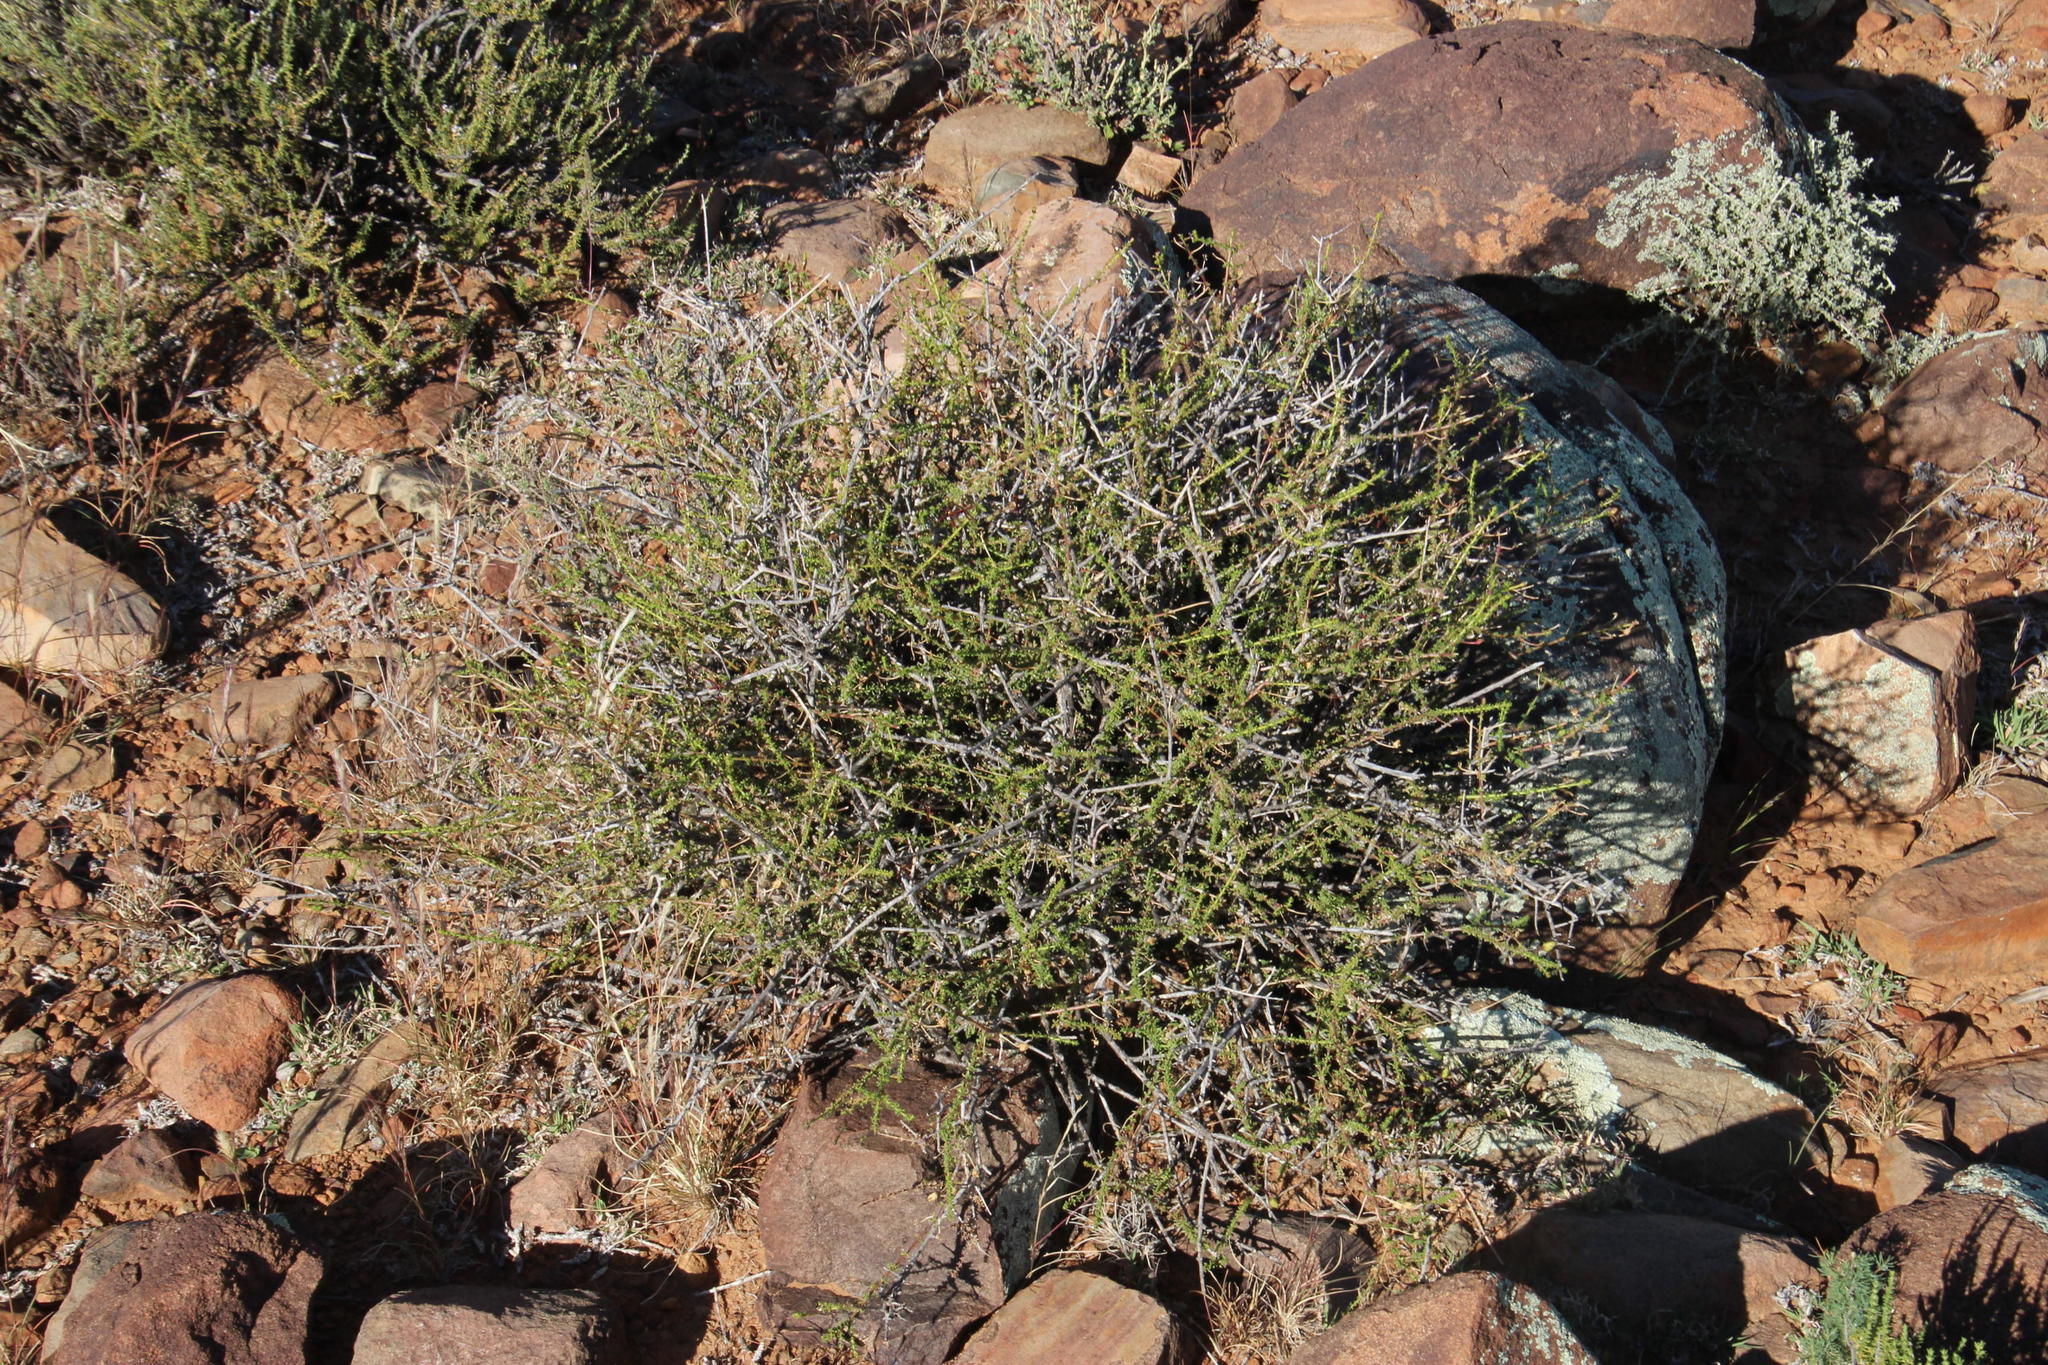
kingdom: Plantae
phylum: Tracheophyta
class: Magnoliopsida
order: Lamiales
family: Scrophulariaceae
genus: Jamesbrittenia
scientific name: Jamesbrittenia atropurpurea
